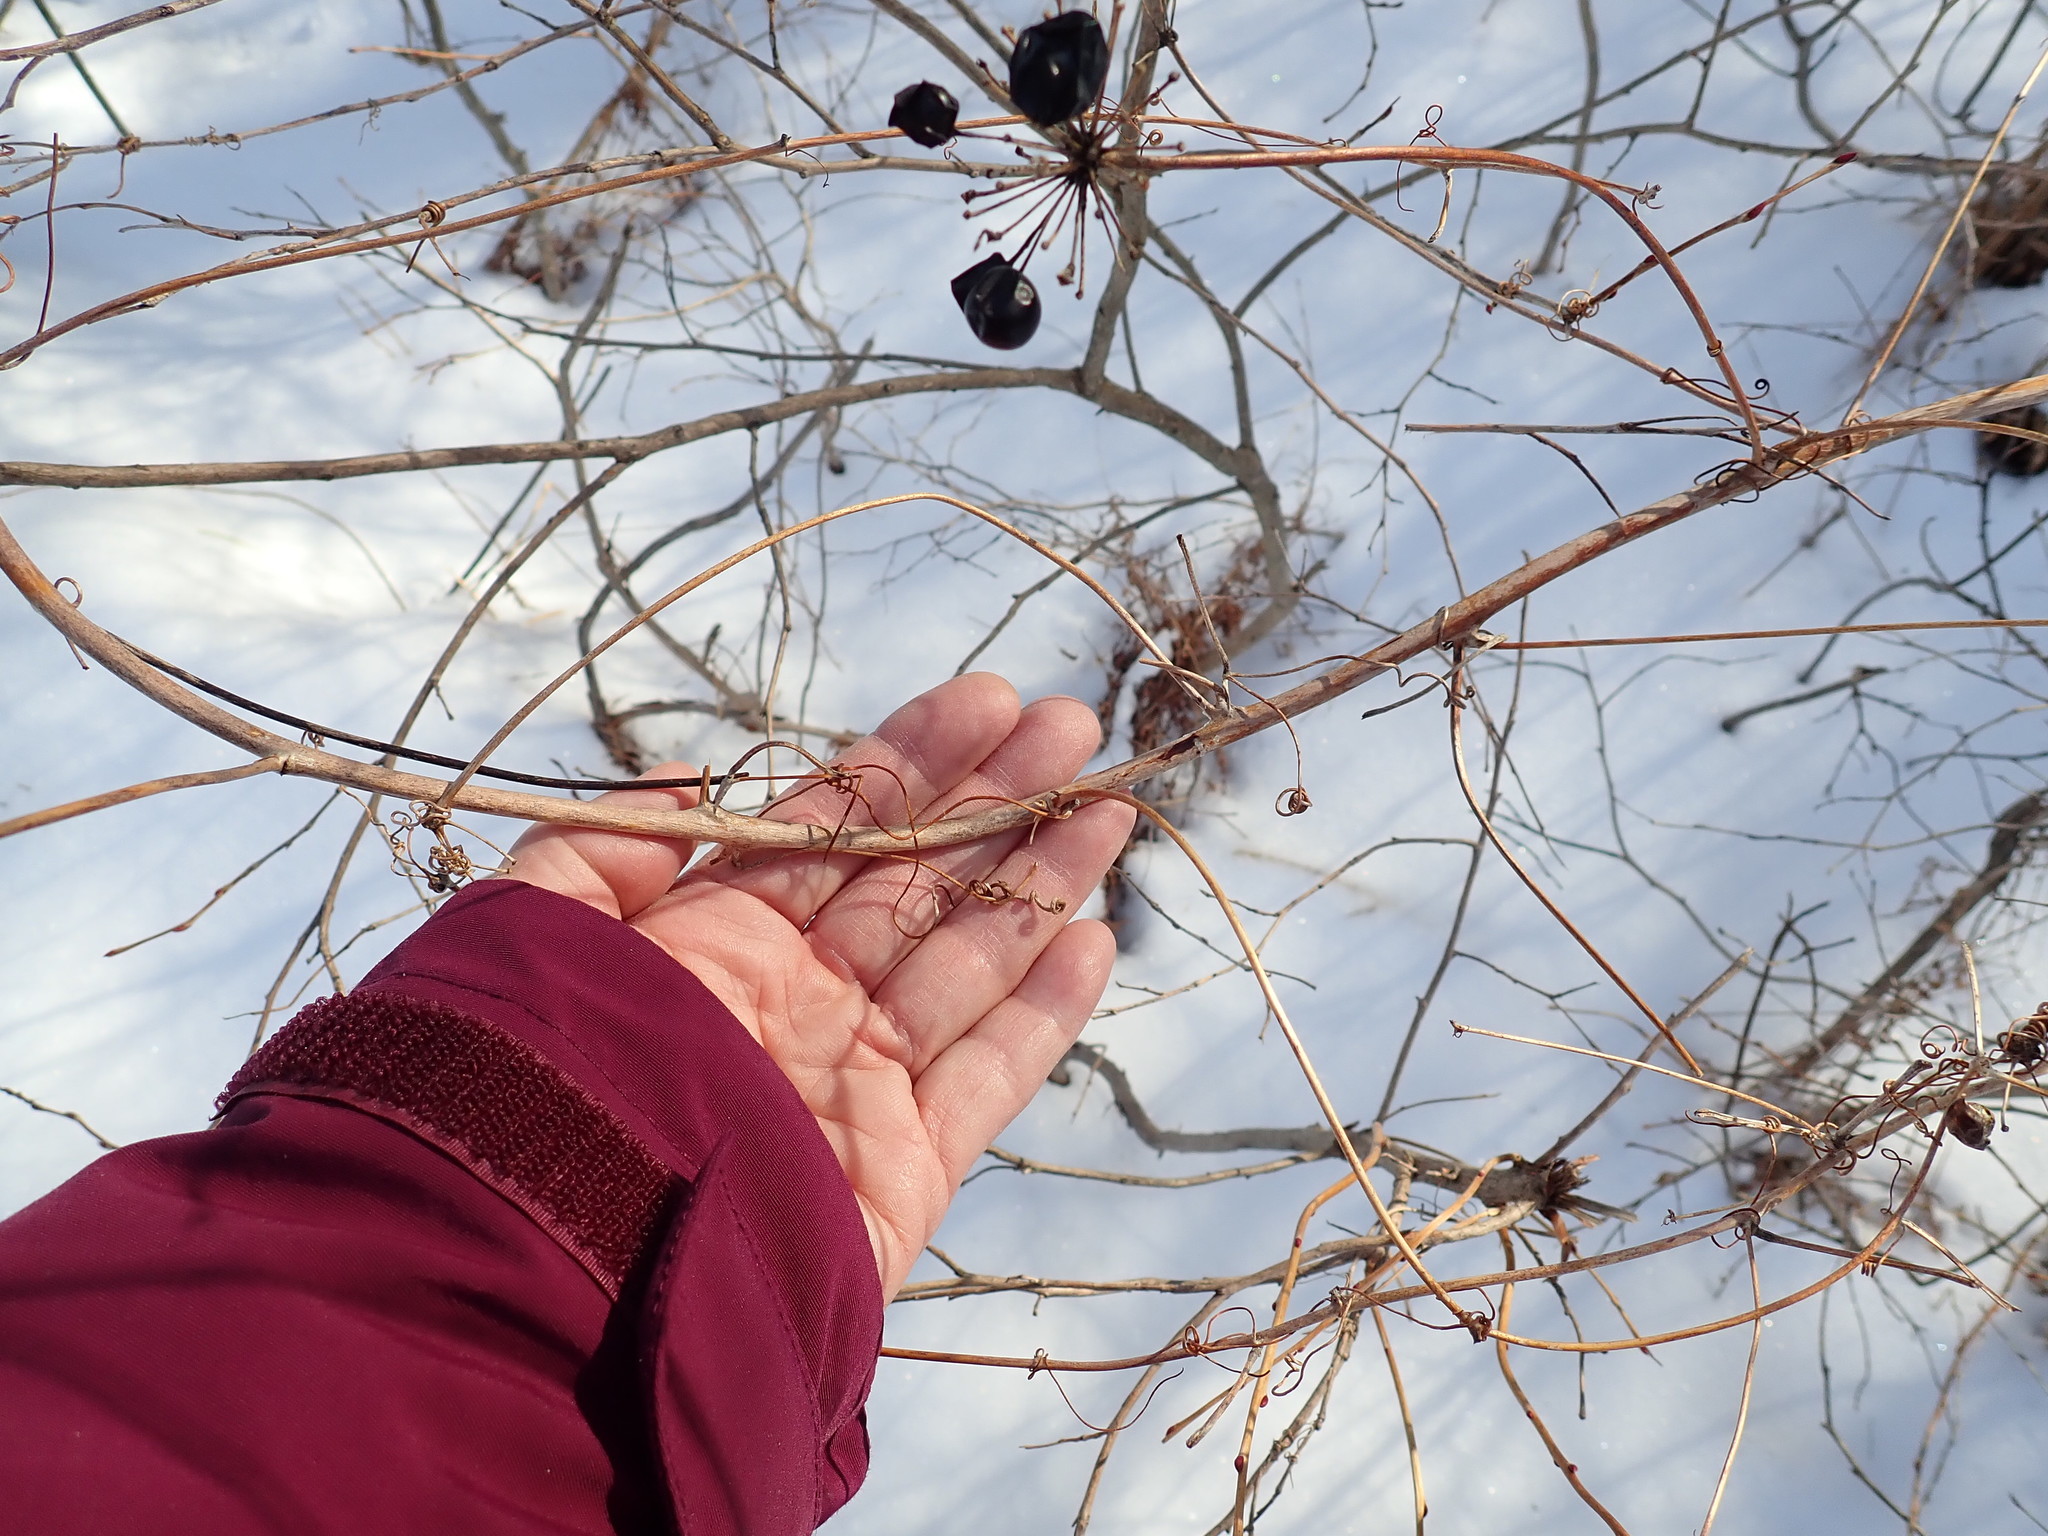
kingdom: Plantae
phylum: Tracheophyta
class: Liliopsida
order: Liliales
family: Smilacaceae
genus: Smilax
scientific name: Smilax herbacea
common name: Jacob's-ladder
